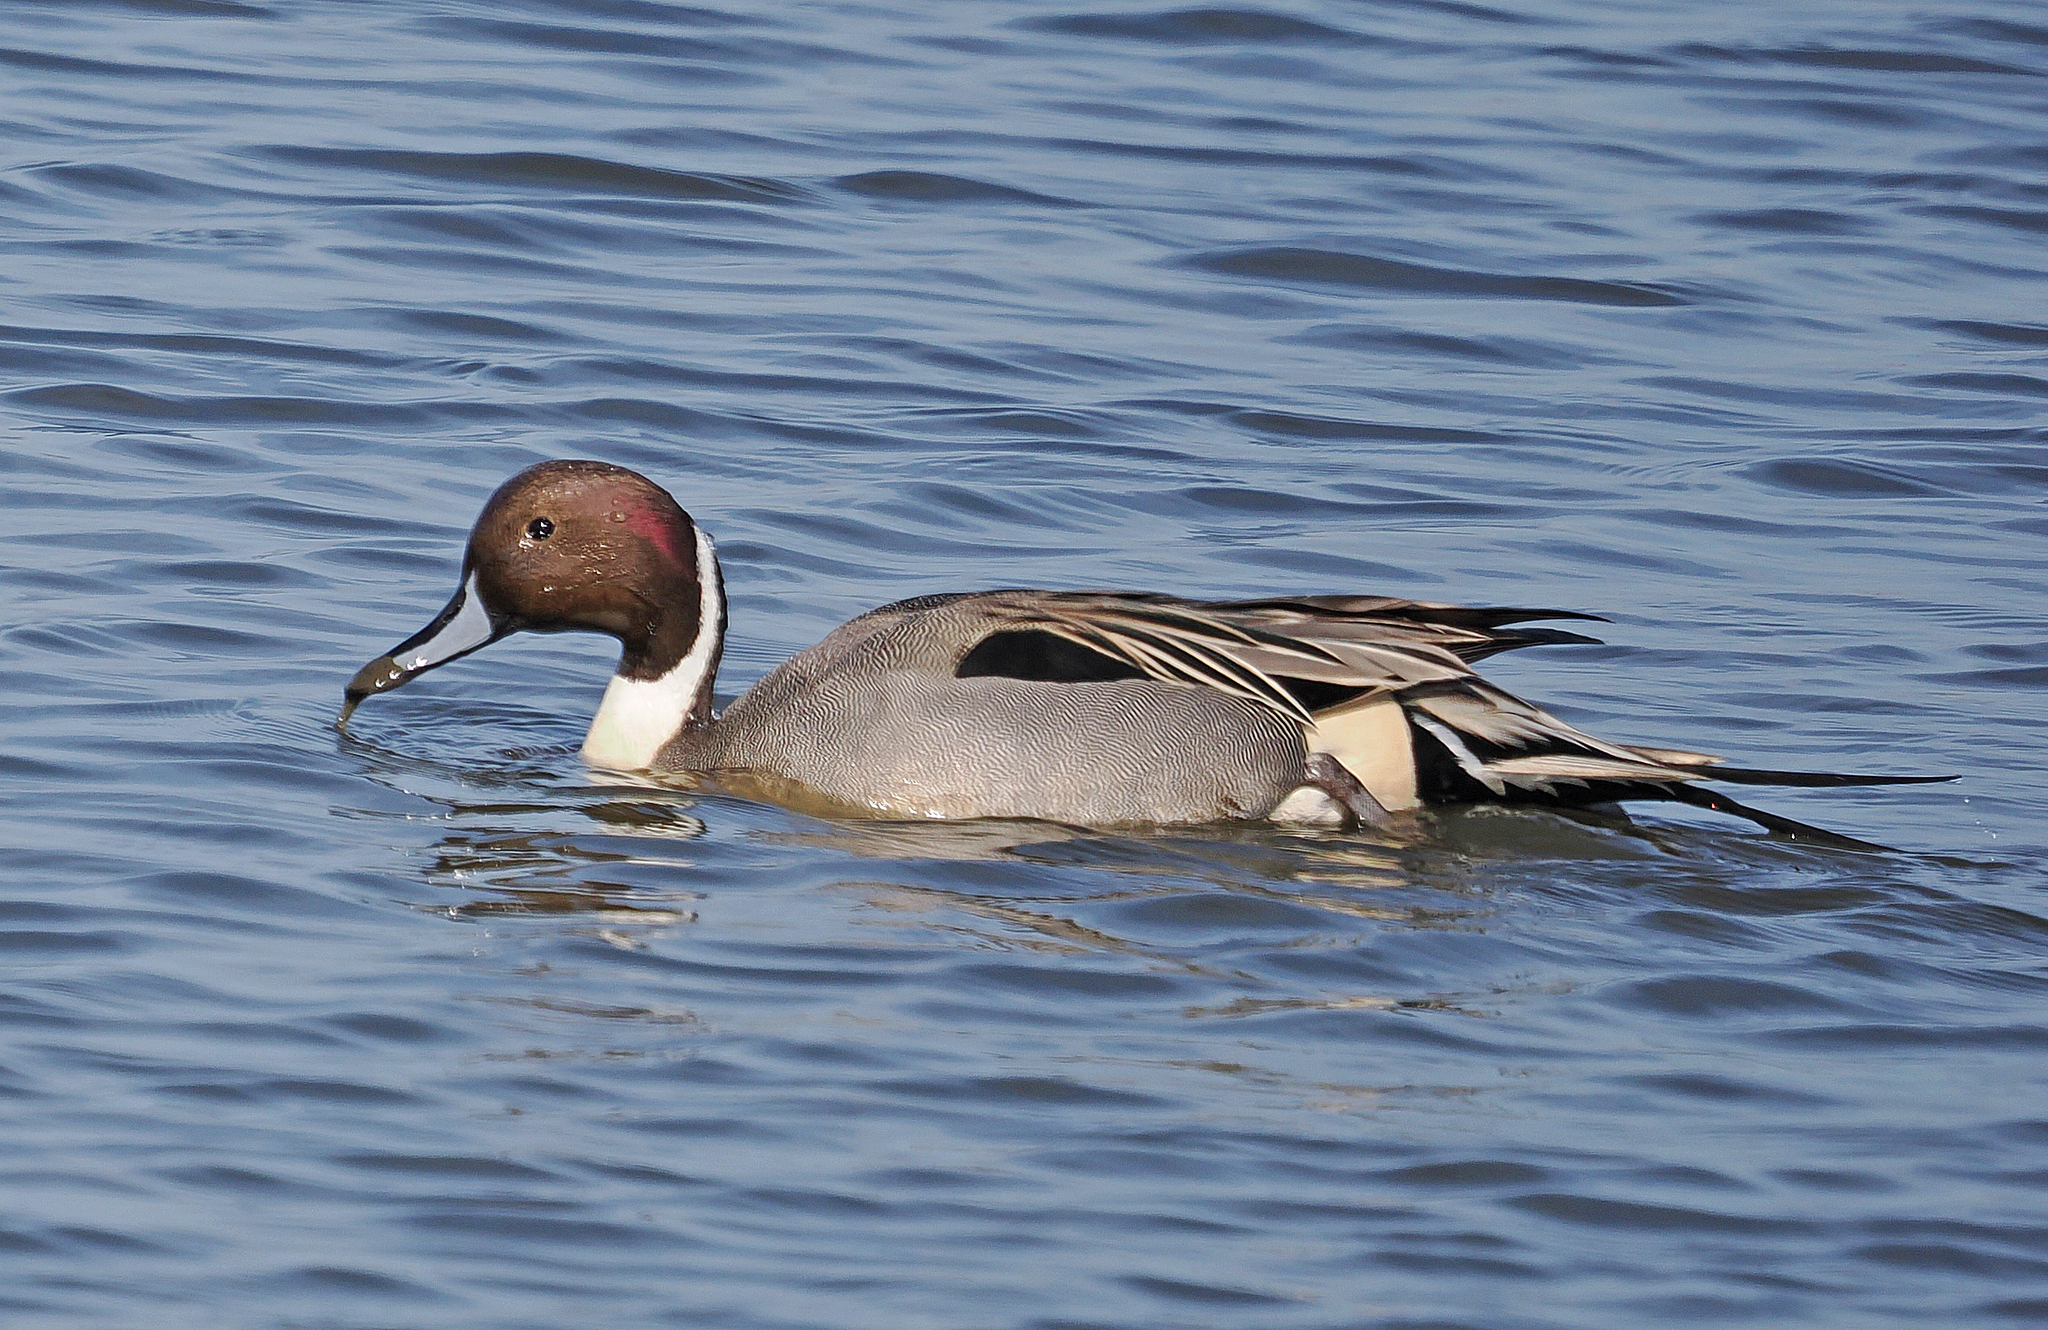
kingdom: Animalia
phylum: Chordata
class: Aves
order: Anseriformes
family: Anatidae
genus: Anas
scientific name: Anas acuta
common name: Northern pintail
